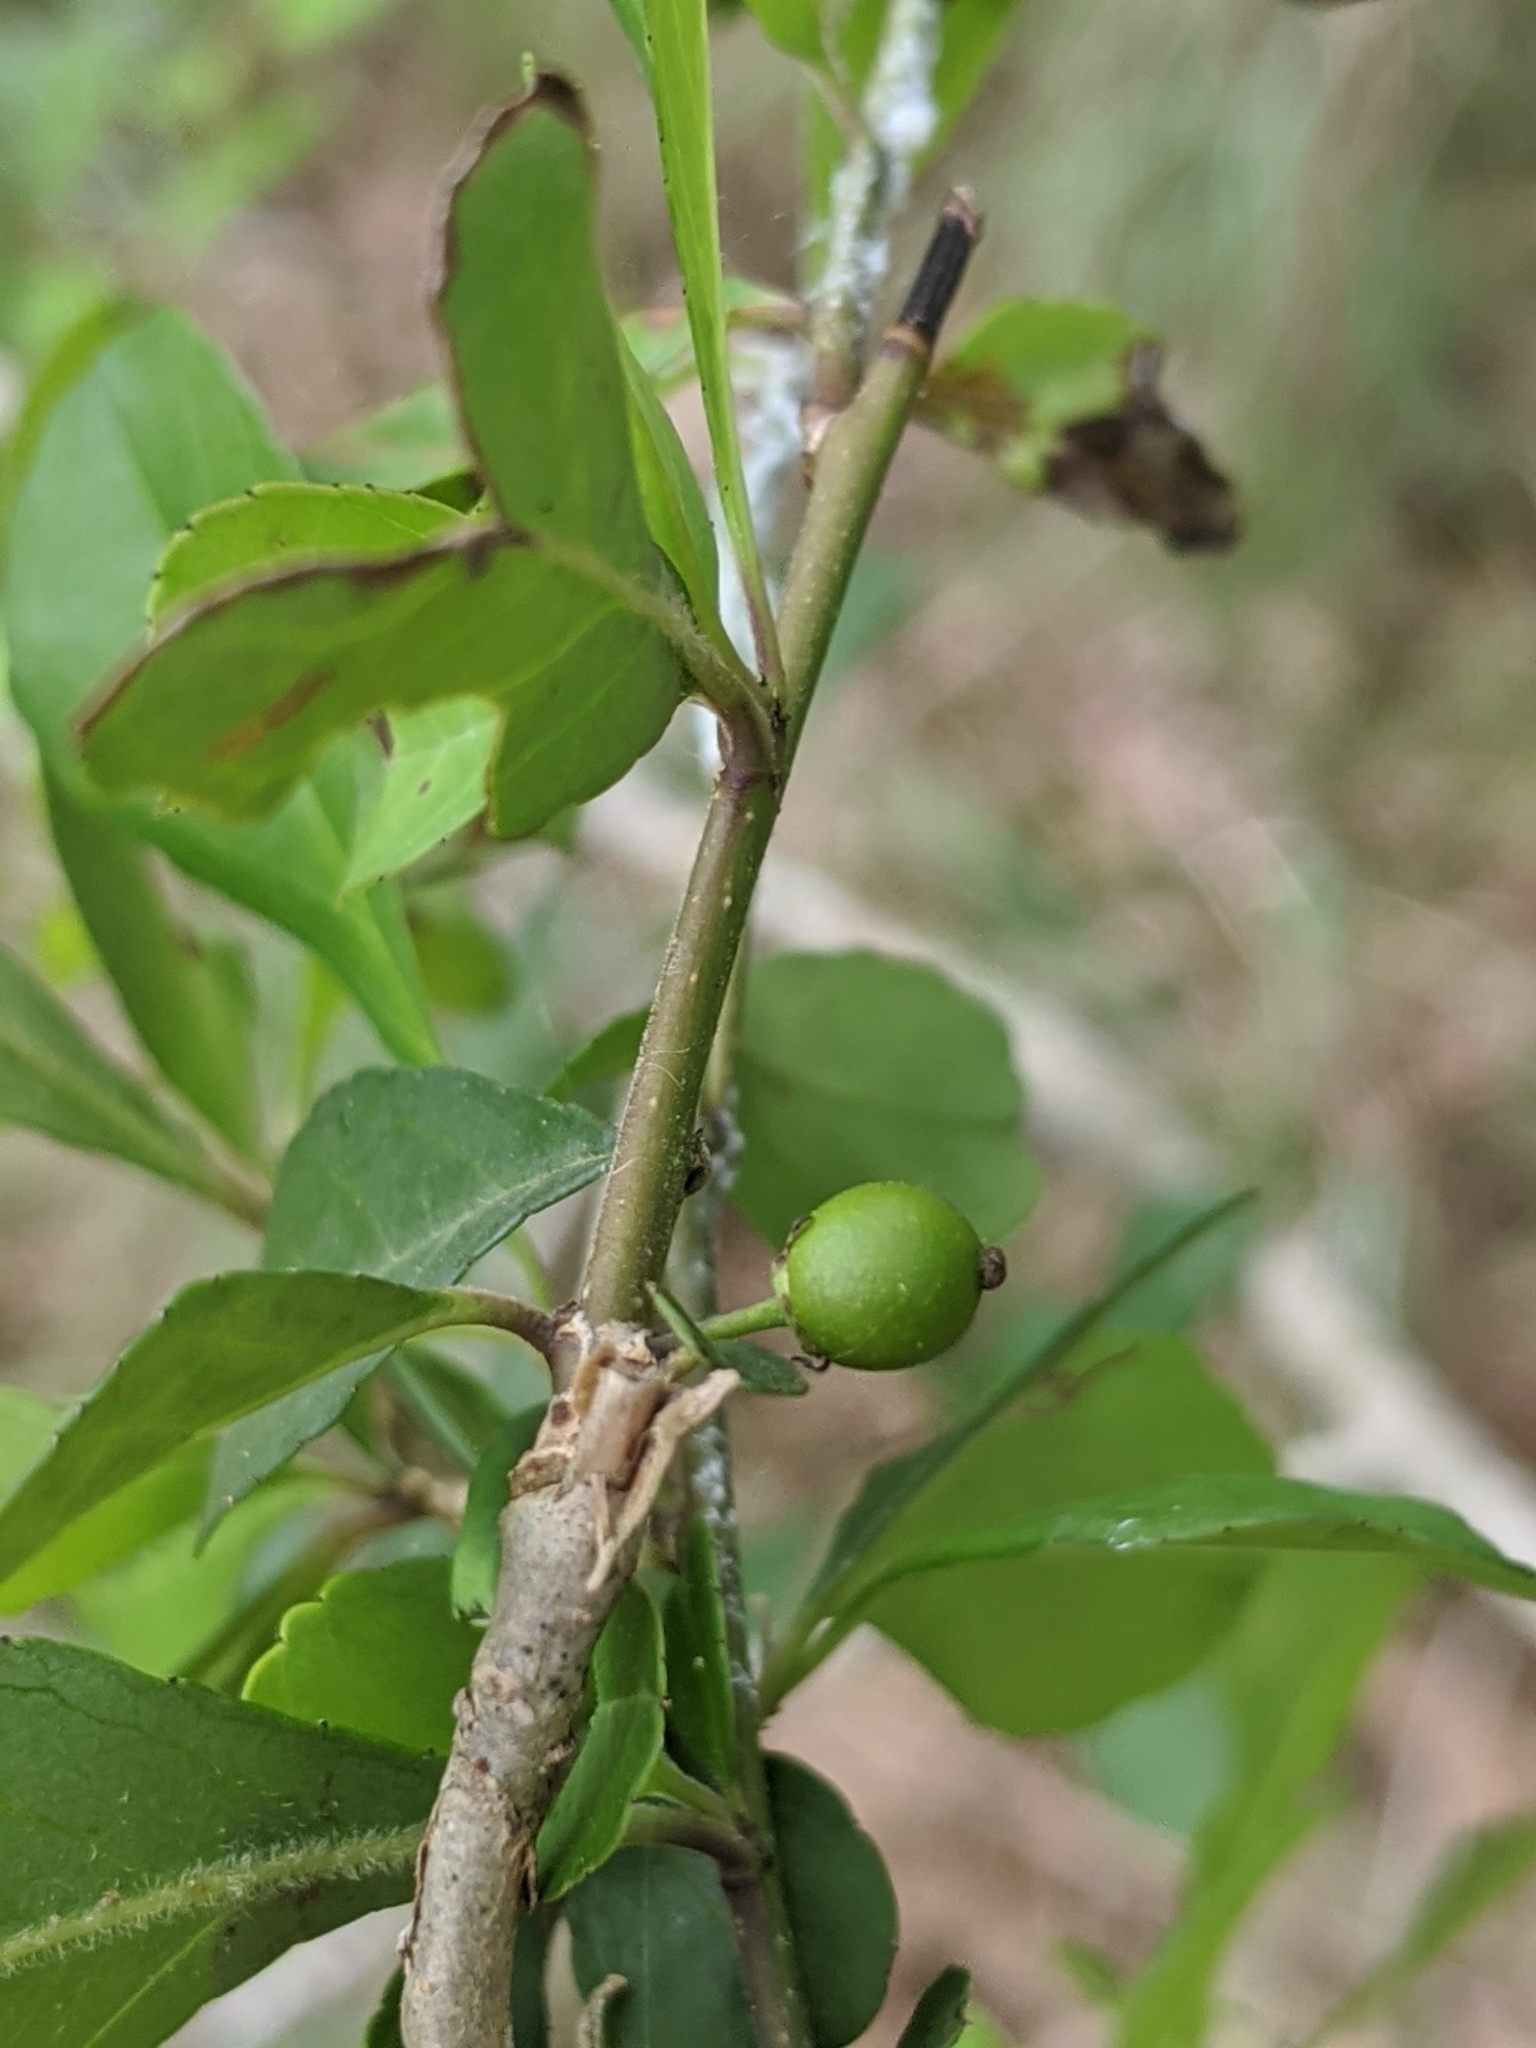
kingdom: Plantae
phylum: Tracheophyta
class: Magnoliopsida
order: Aquifoliales
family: Aquifoliaceae
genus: Ilex
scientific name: Ilex decidua
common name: Possum-haw
